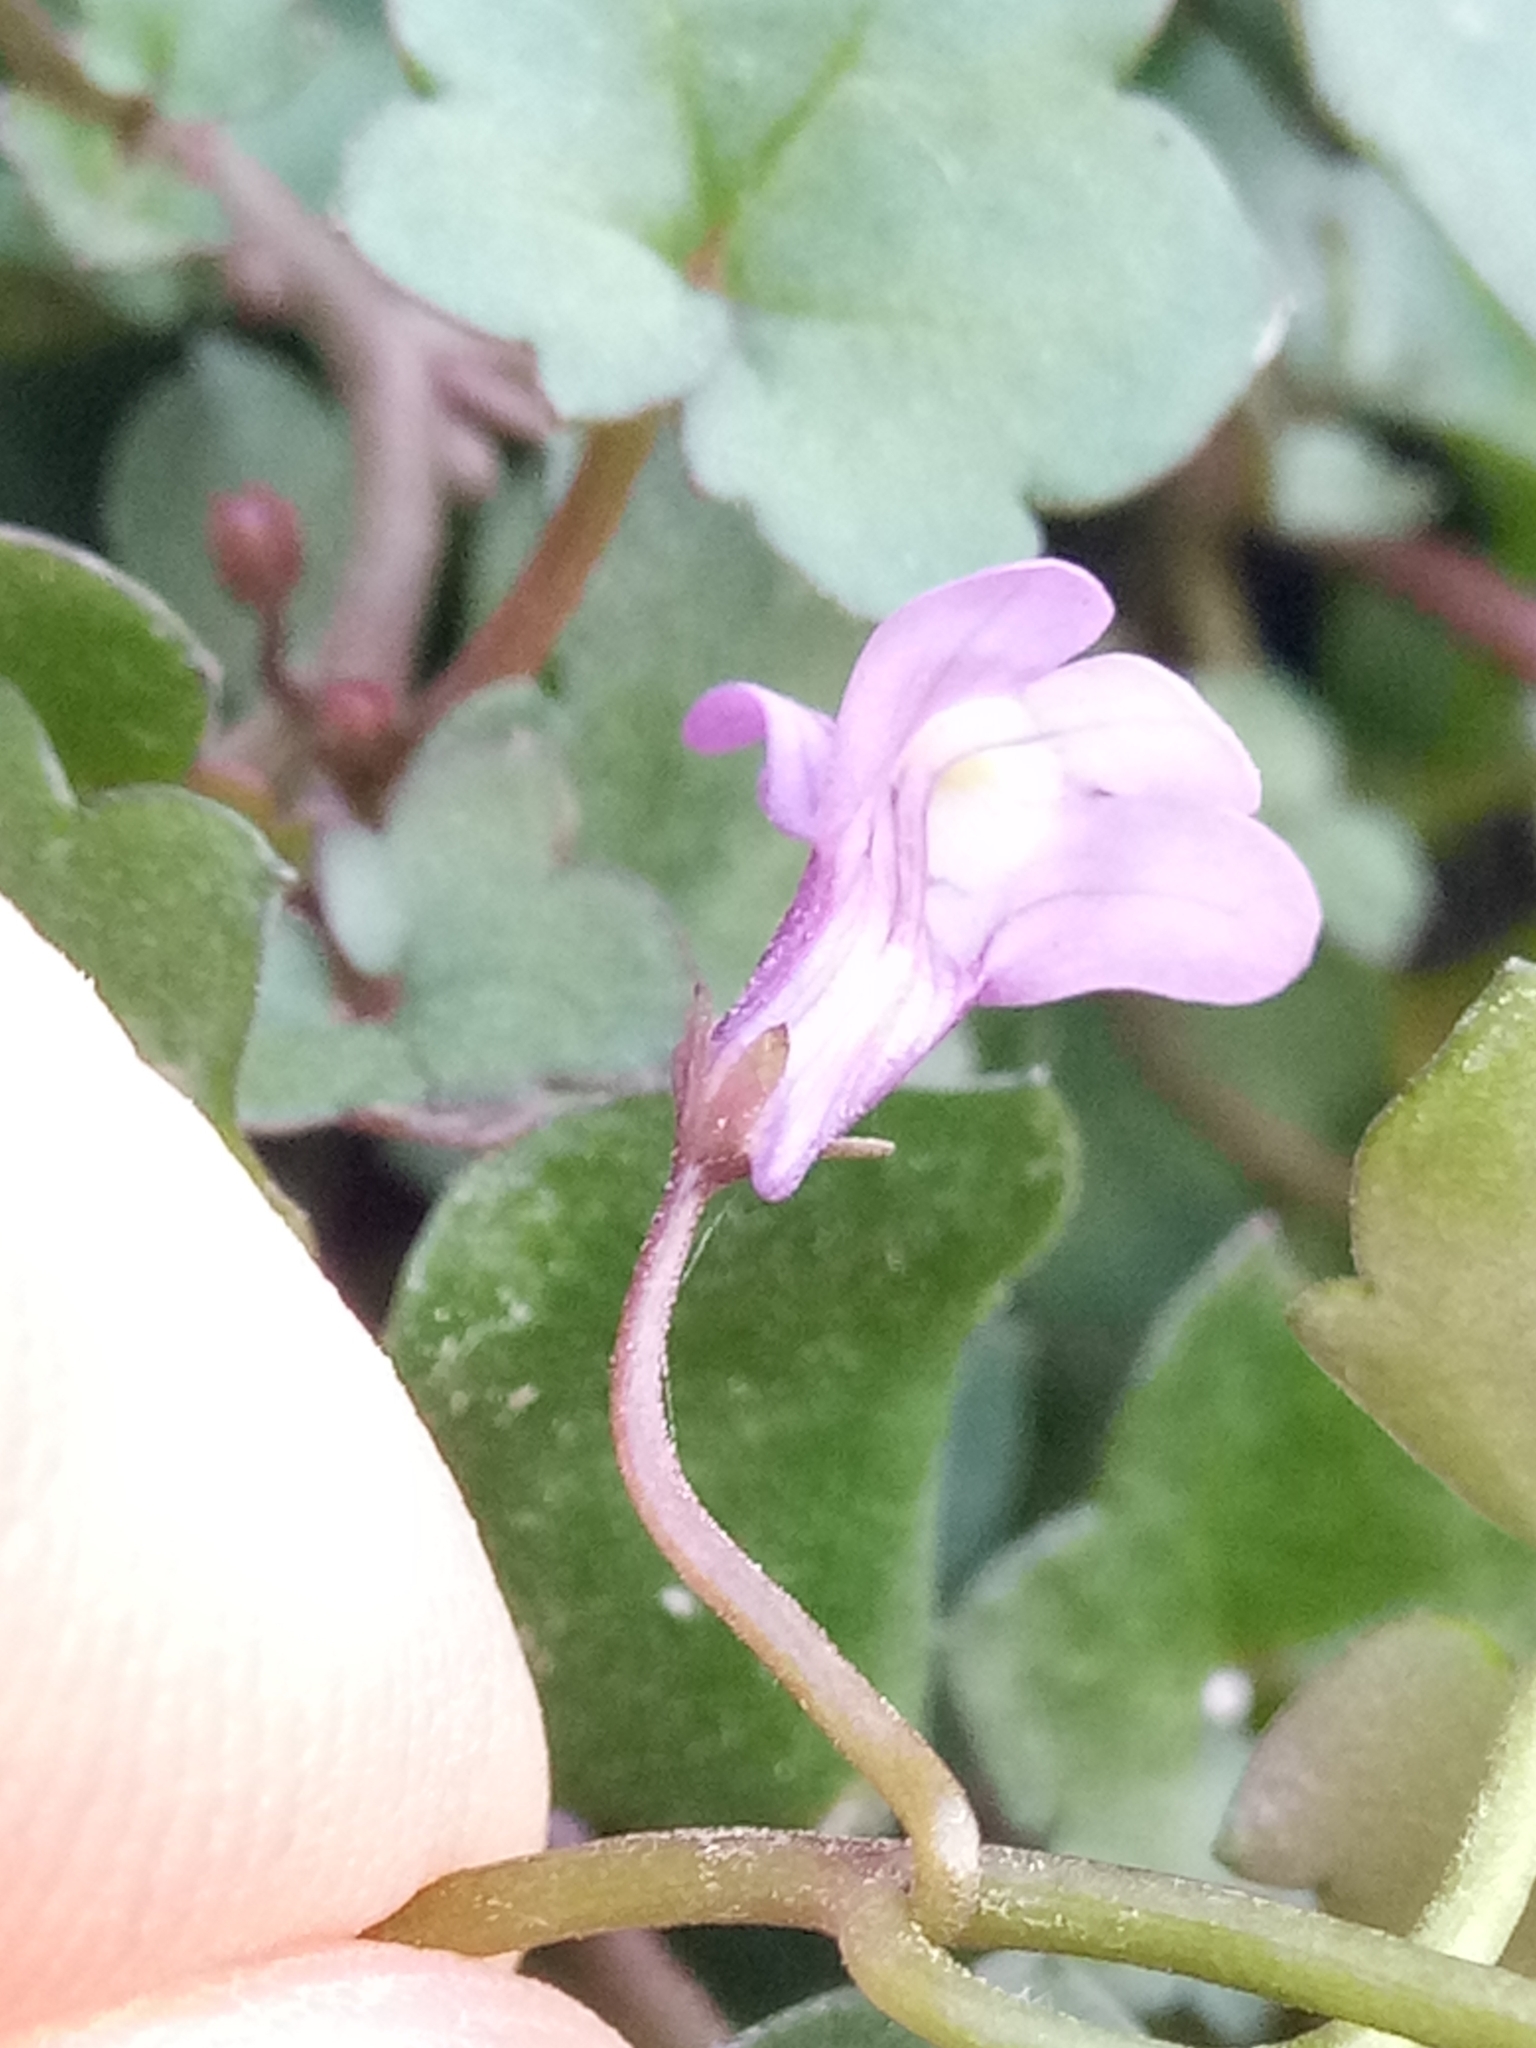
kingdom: Plantae
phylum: Tracheophyta
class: Magnoliopsida
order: Lamiales
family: Plantaginaceae
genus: Cymbalaria
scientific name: Cymbalaria muralis
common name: Ivy-leaved toadflax
